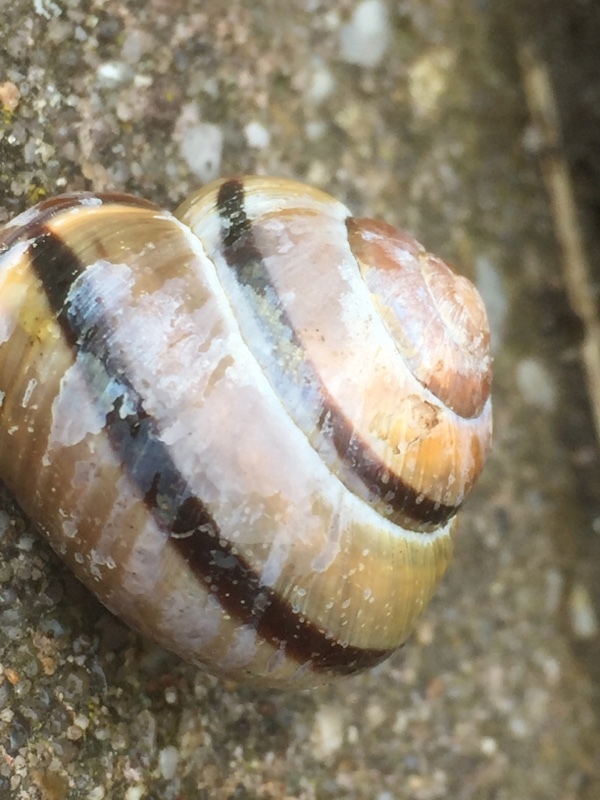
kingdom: Animalia
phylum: Mollusca
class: Gastropoda
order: Stylommatophora
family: Helicidae
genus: Cepaea
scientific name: Cepaea nemoralis
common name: Grovesnail
